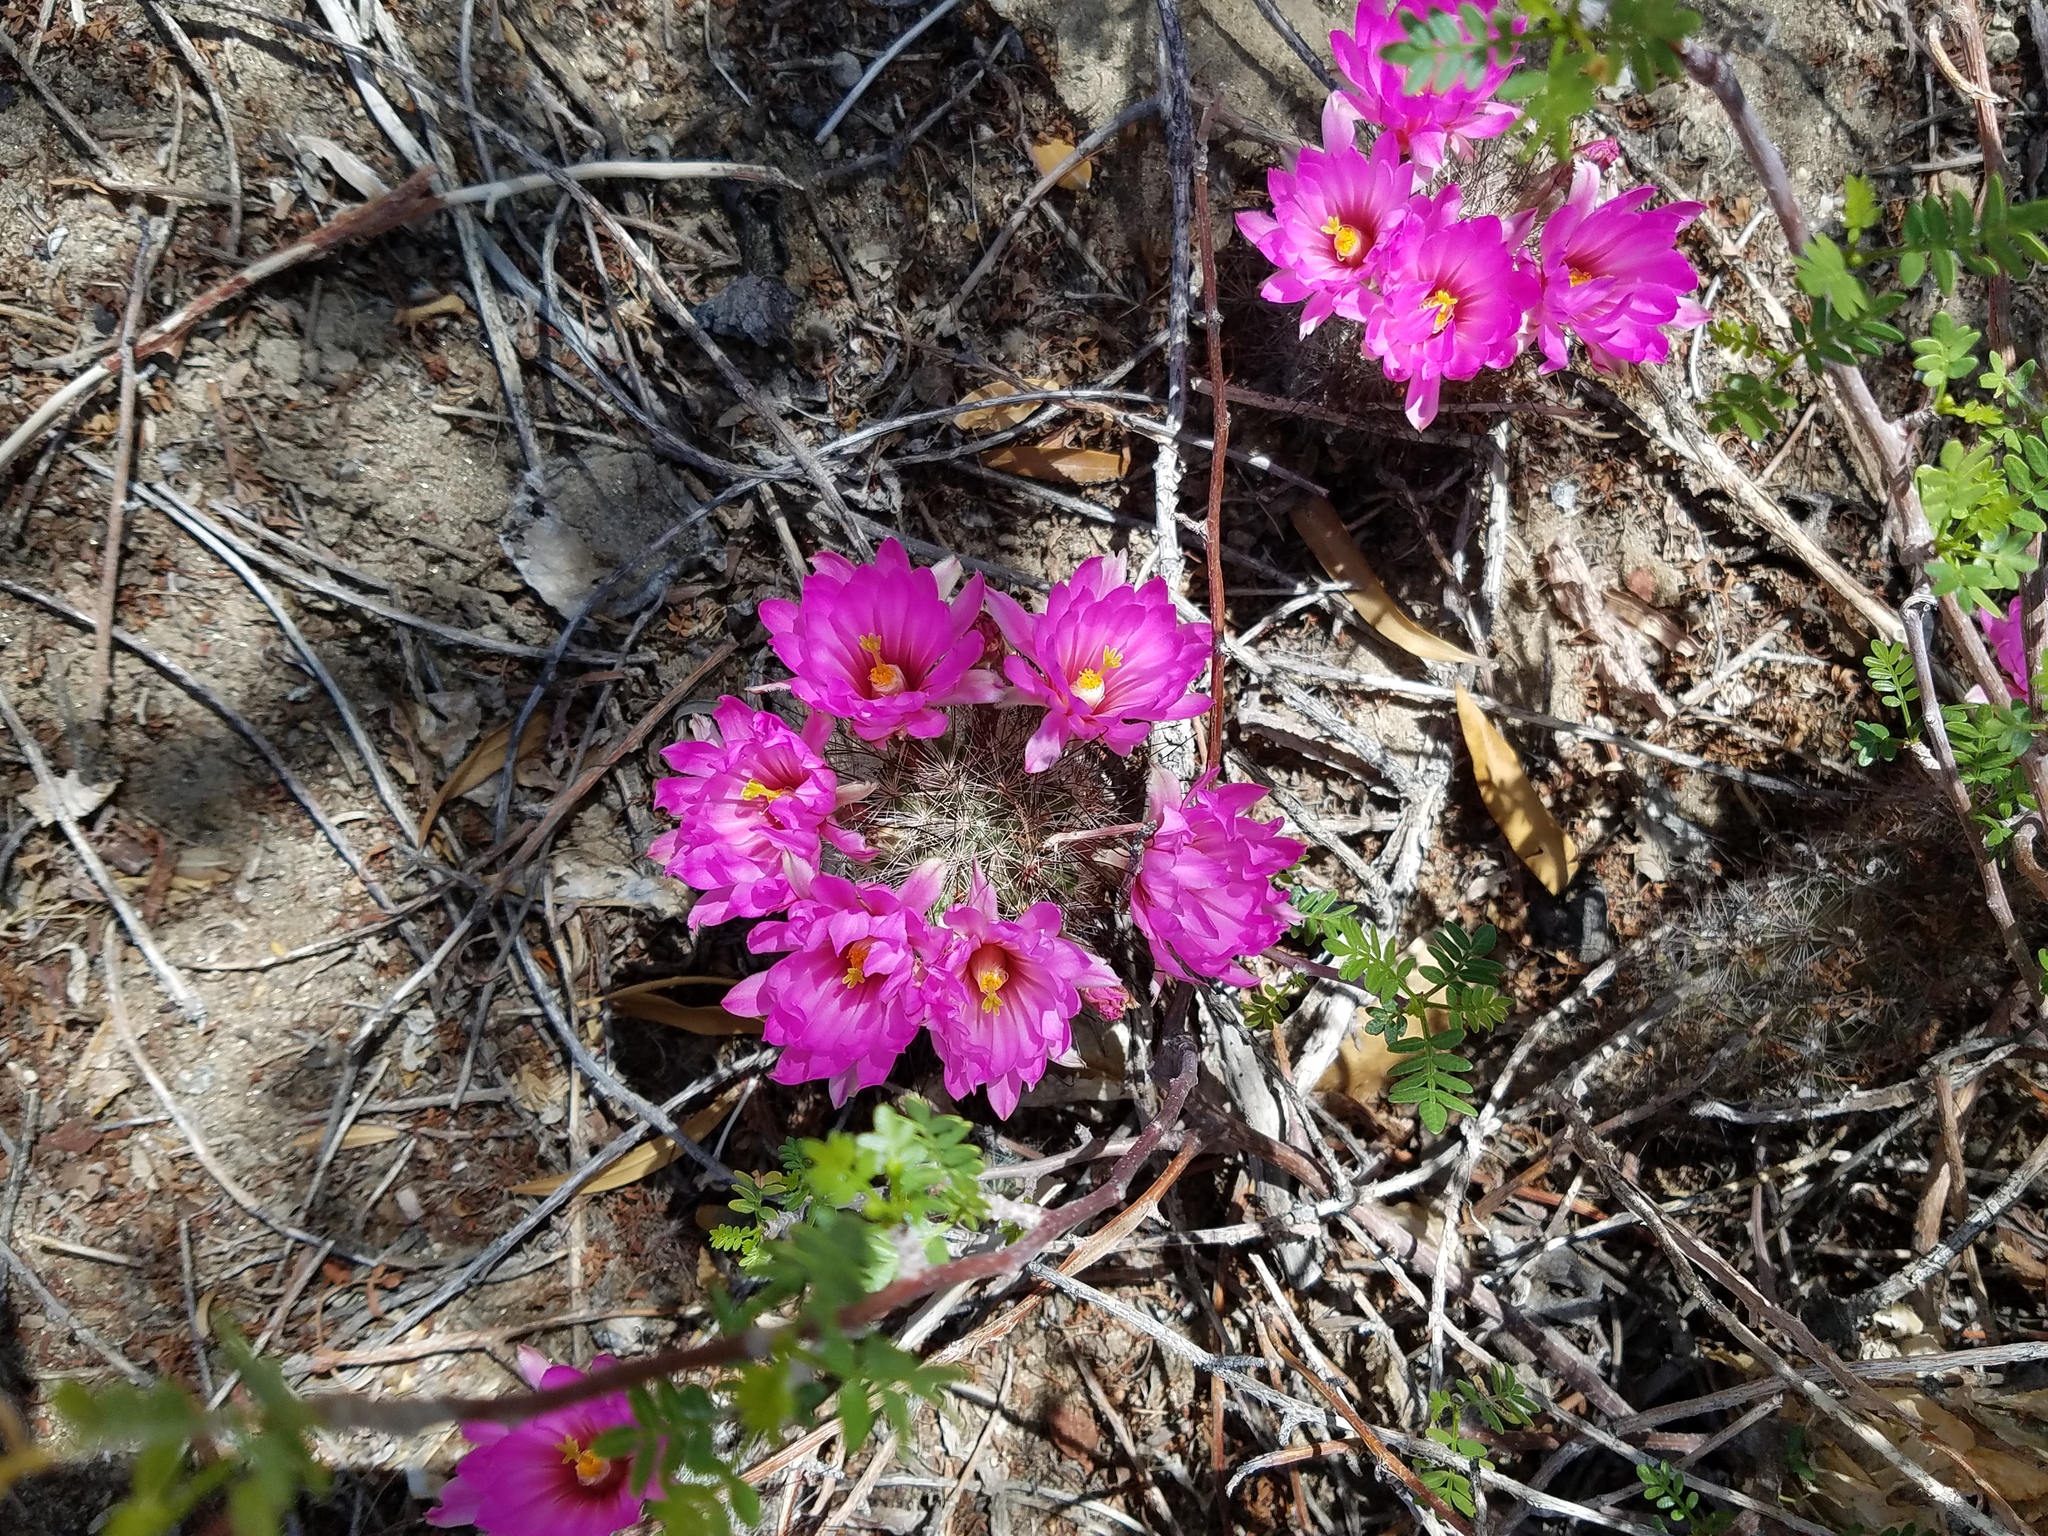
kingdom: Plantae
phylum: Tracheophyta
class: Magnoliopsida
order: Caryophyllales
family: Cactaceae
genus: Cochemiea
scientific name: Cochemiea tetrancistra
